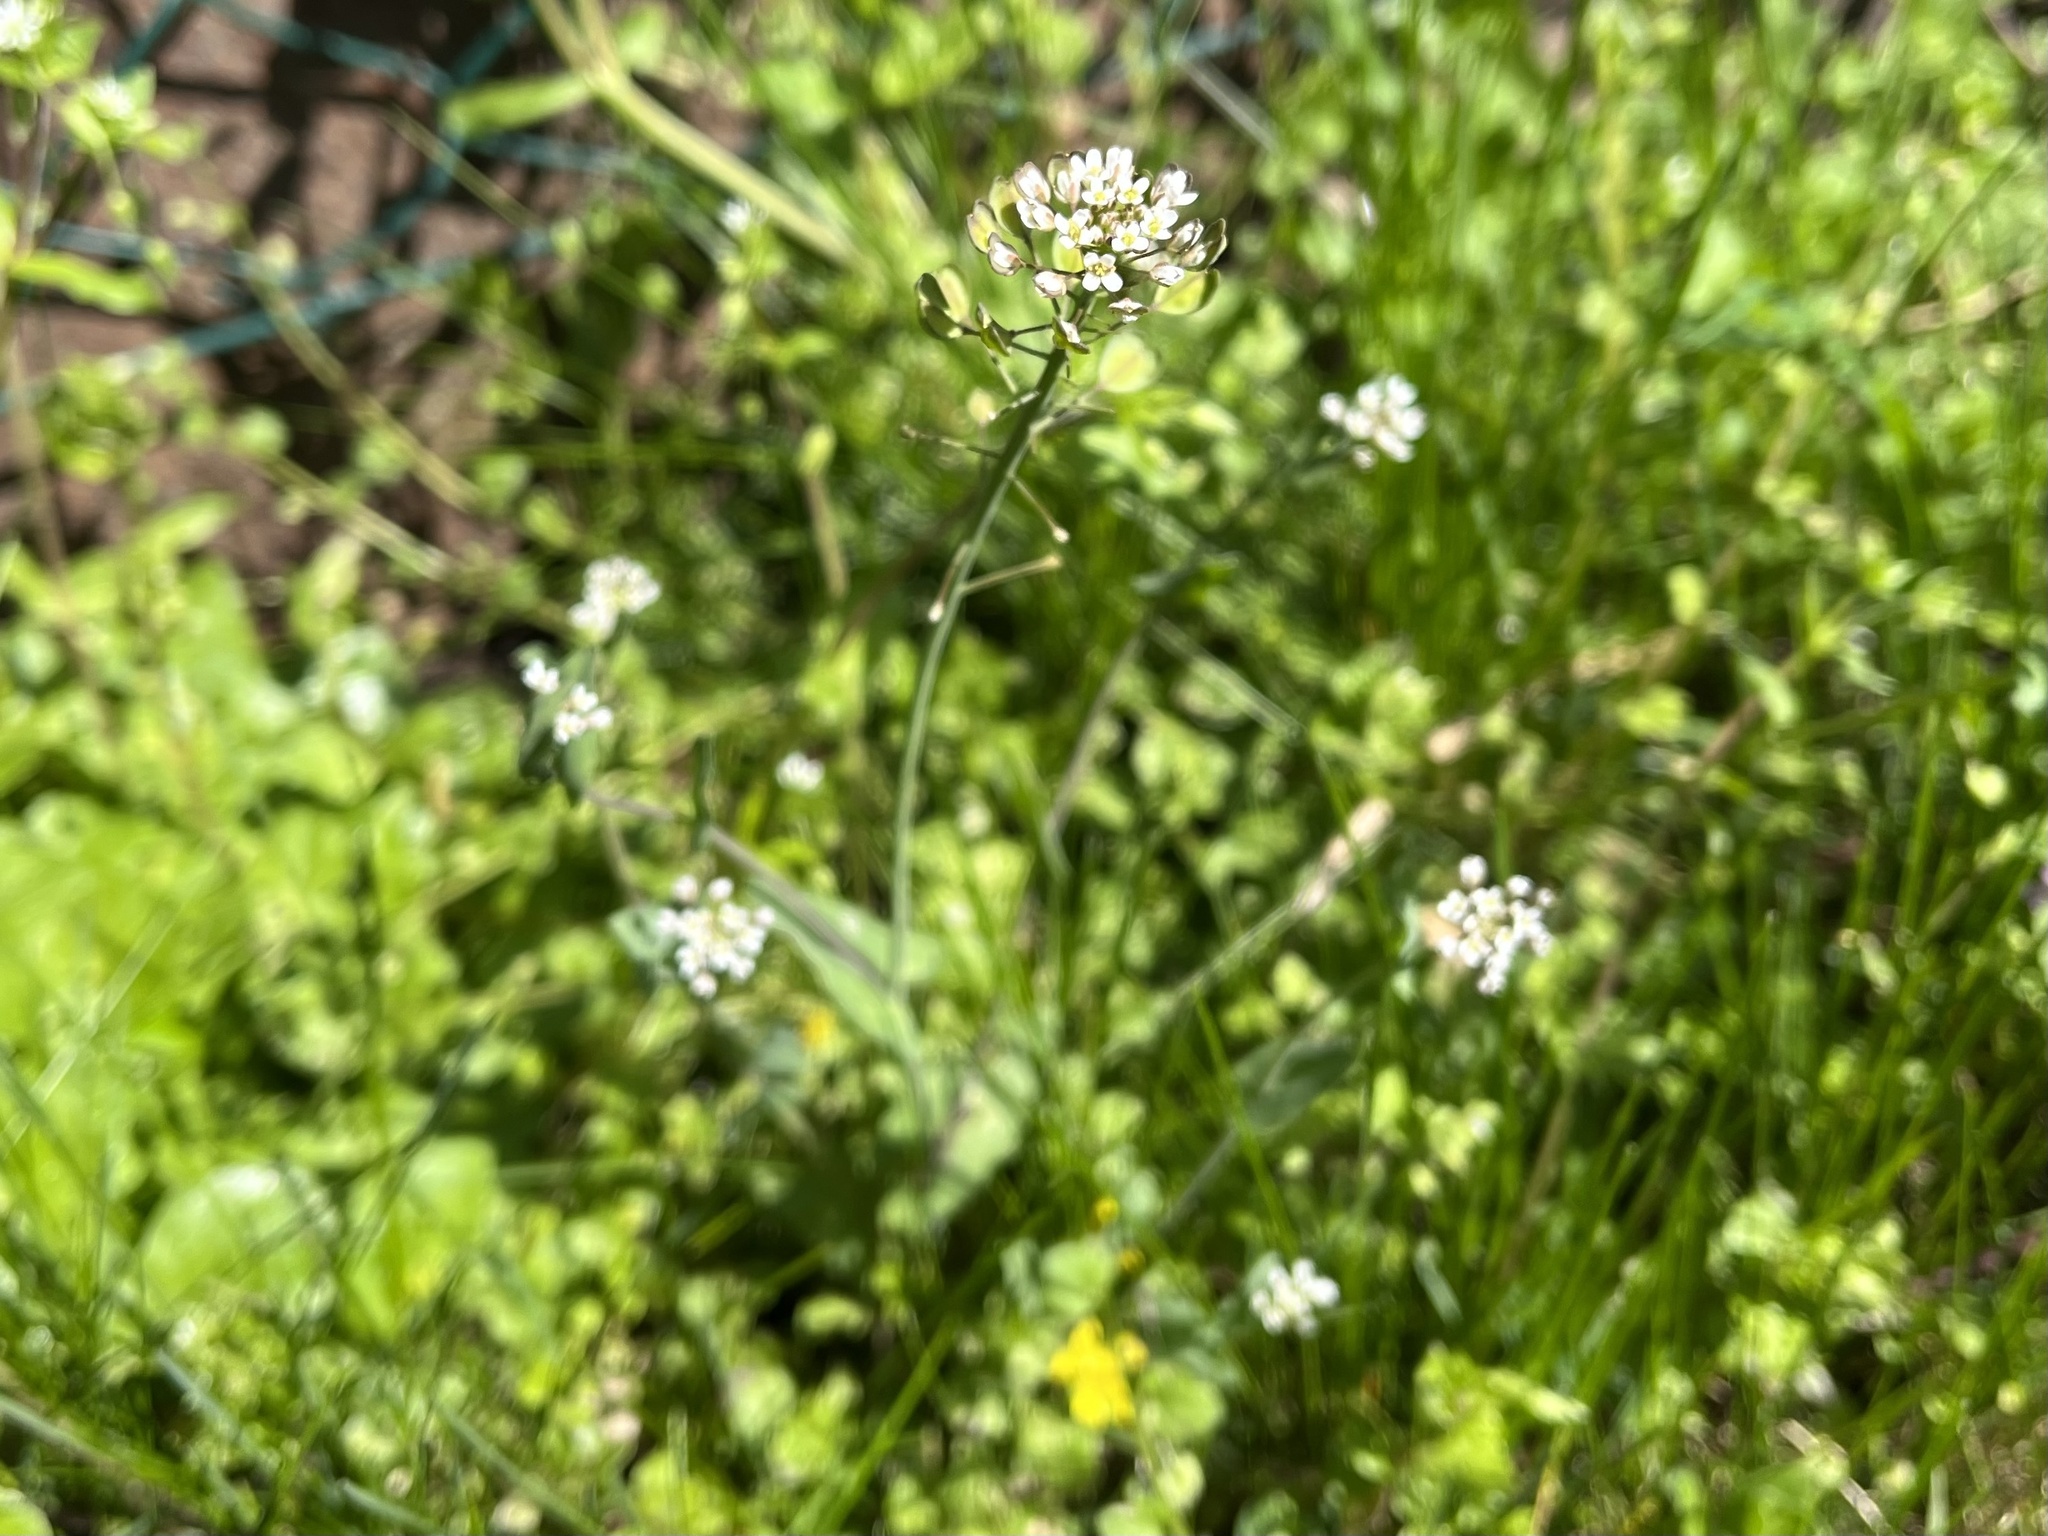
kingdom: Plantae
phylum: Tracheophyta
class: Magnoliopsida
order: Brassicales
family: Brassicaceae
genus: Noccaea
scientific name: Noccaea perfoliata
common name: Perfoliate pennycress
